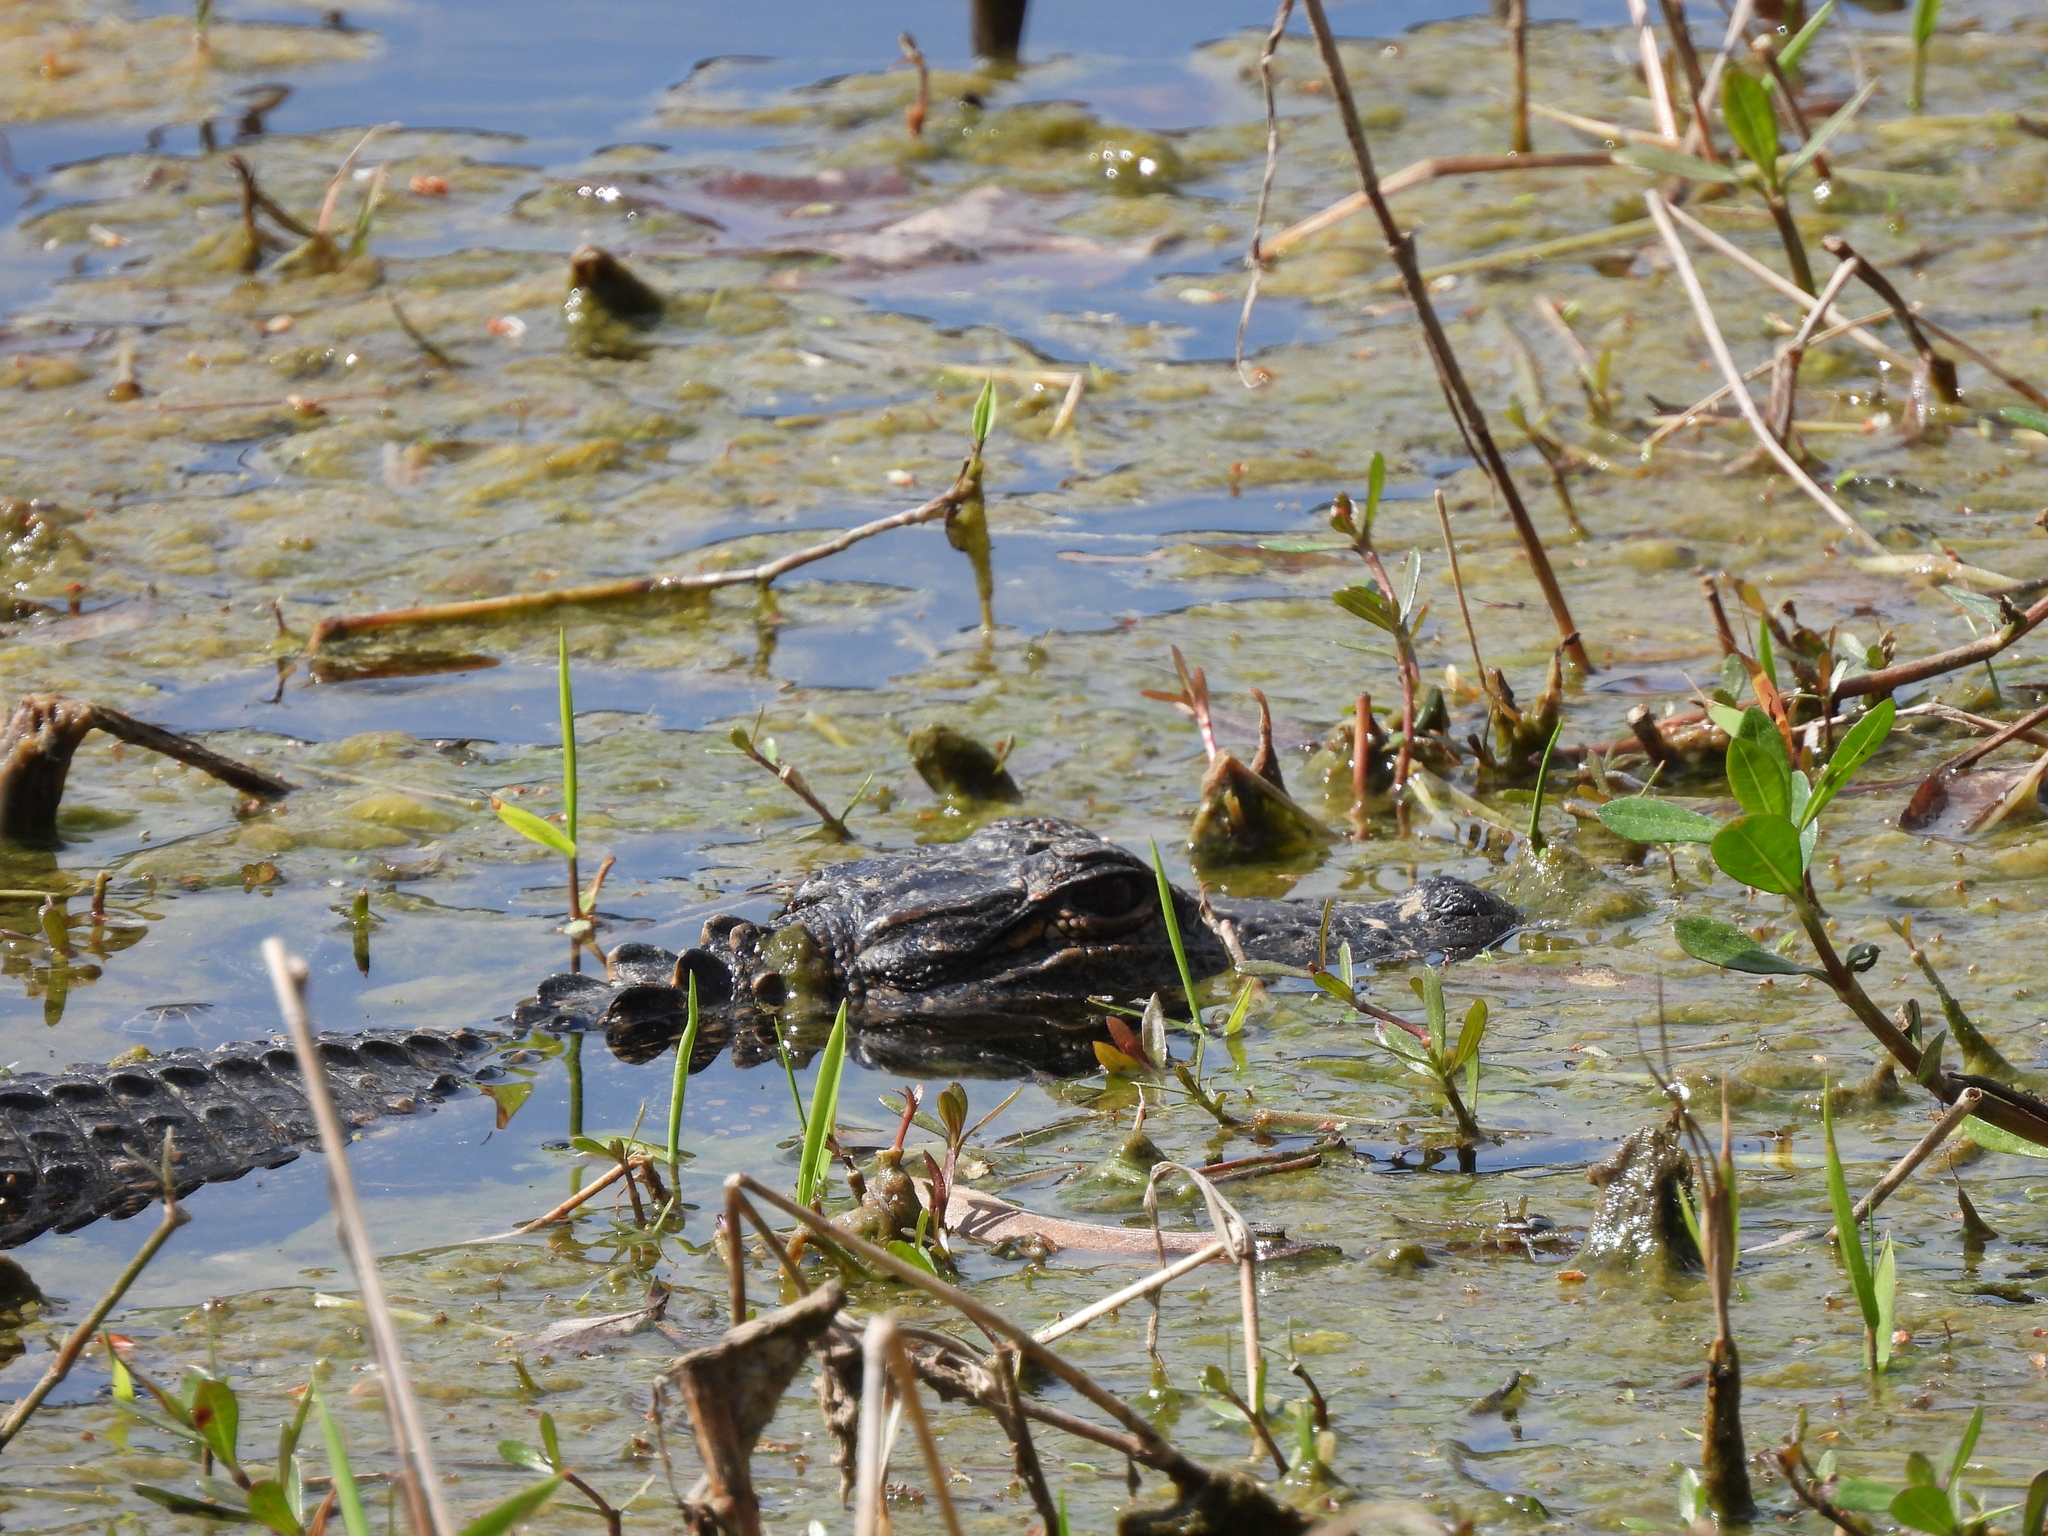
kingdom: Animalia
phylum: Chordata
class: Crocodylia
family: Alligatoridae
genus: Alligator
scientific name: Alligator mississippiensis
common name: American alligator
